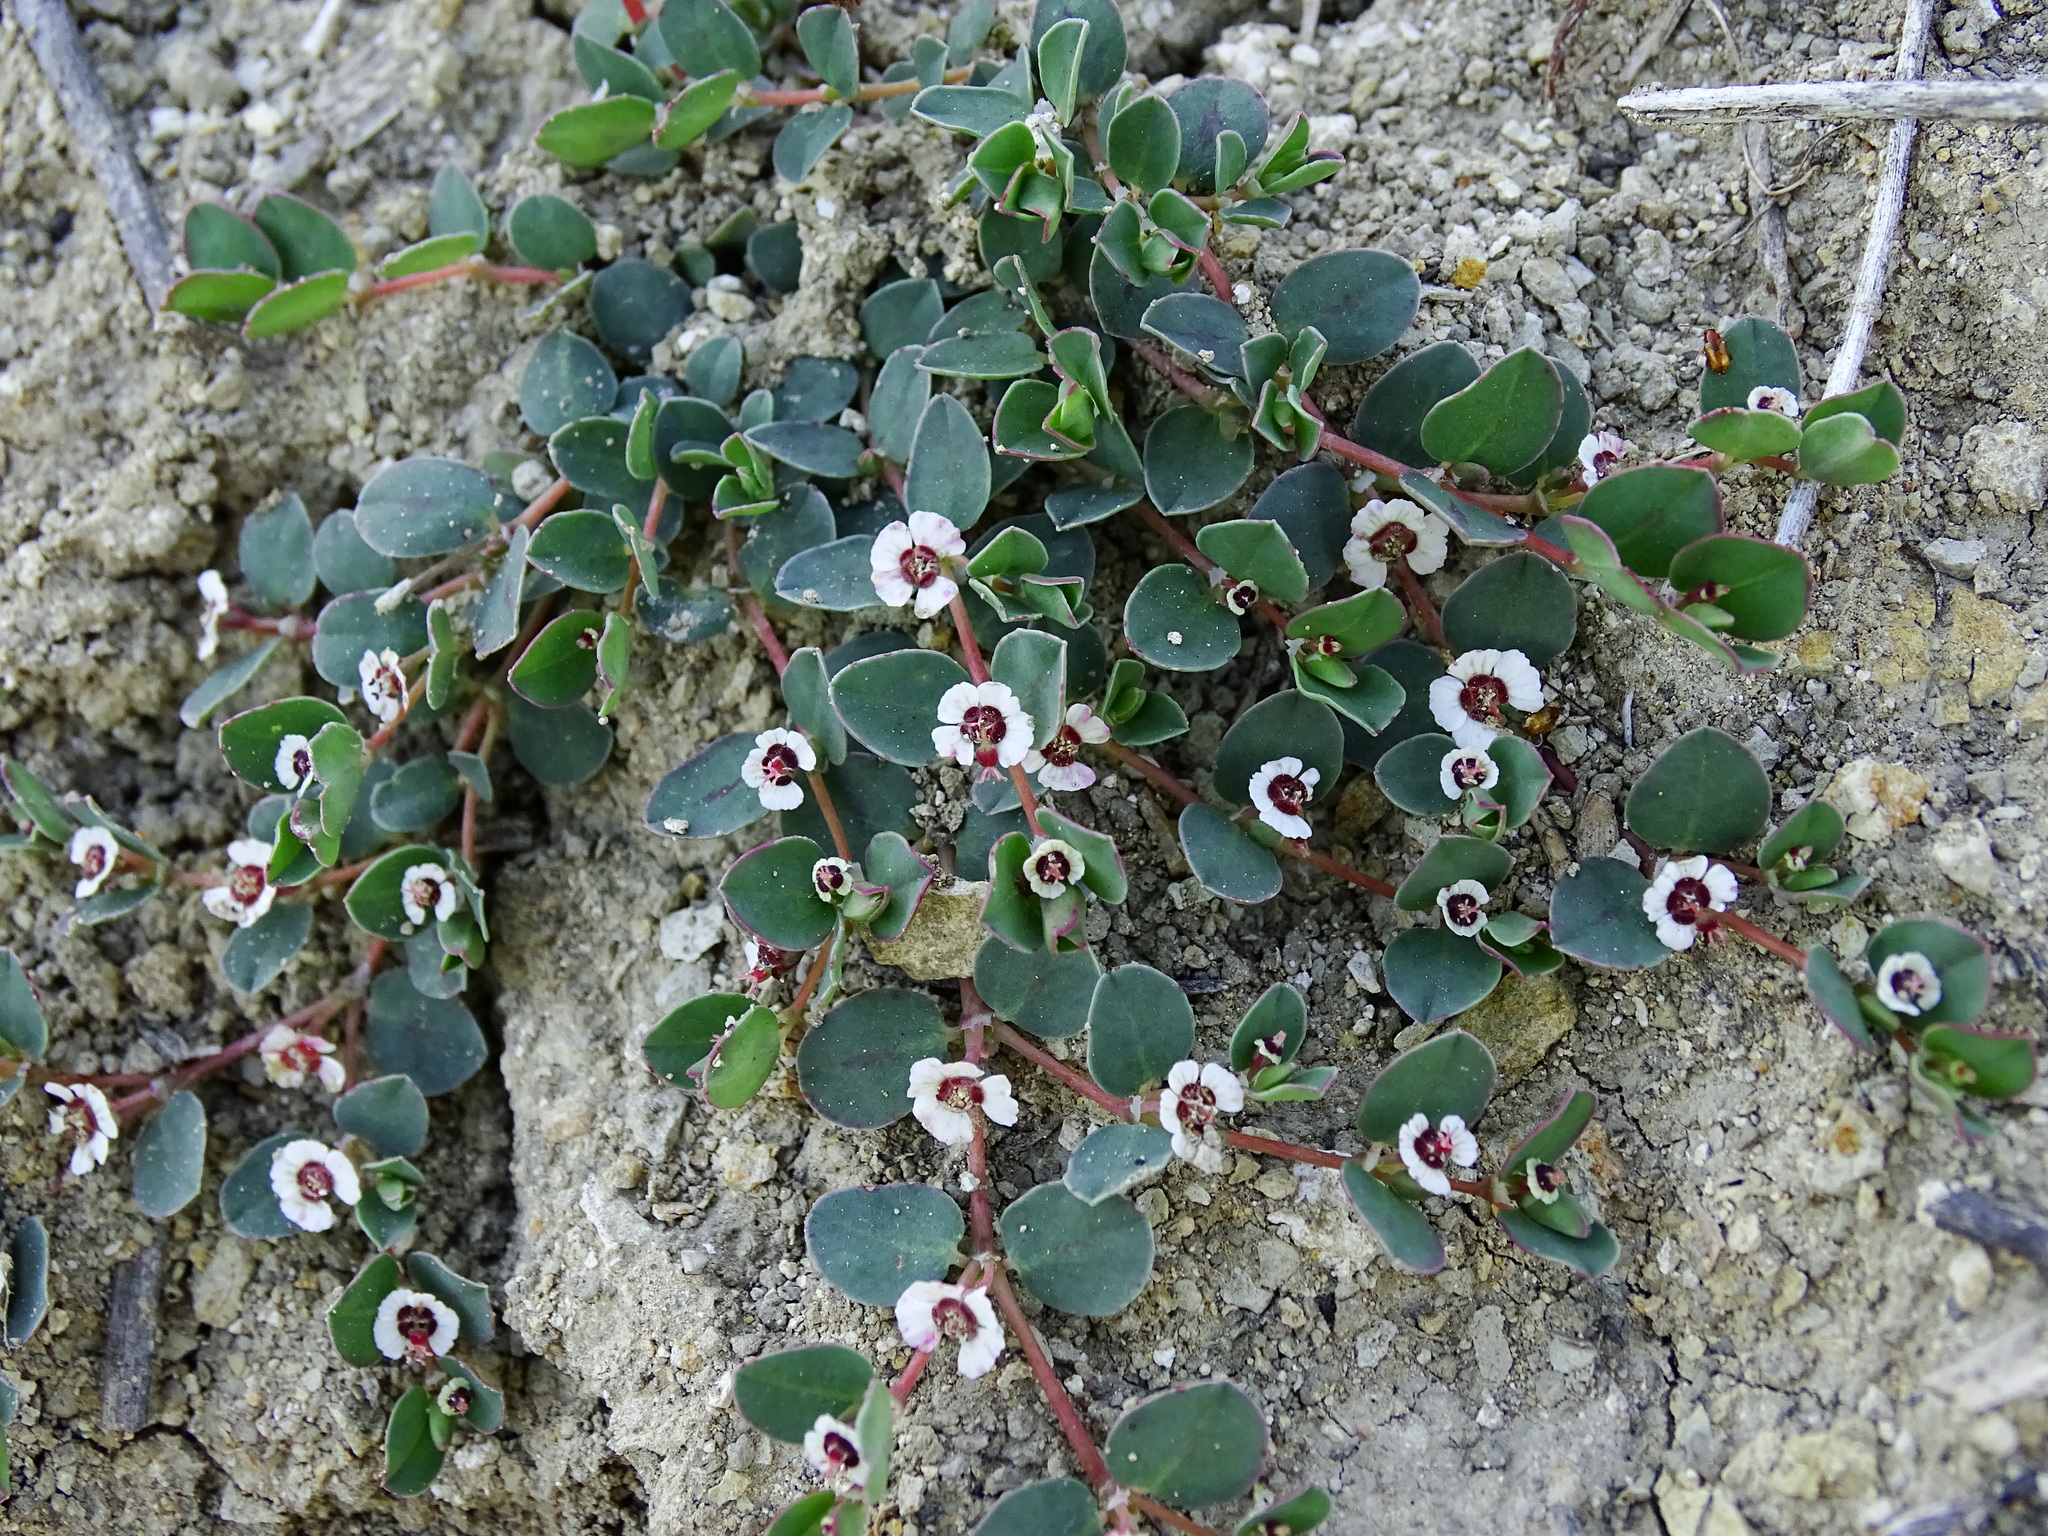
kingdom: Plantae
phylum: Tracheophyta
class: Magnoliopsida
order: Malpighiales
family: Euphorbiaceae
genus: Euphorbia
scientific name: Euphorbia albomarginata
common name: Whitemargin sandmat
